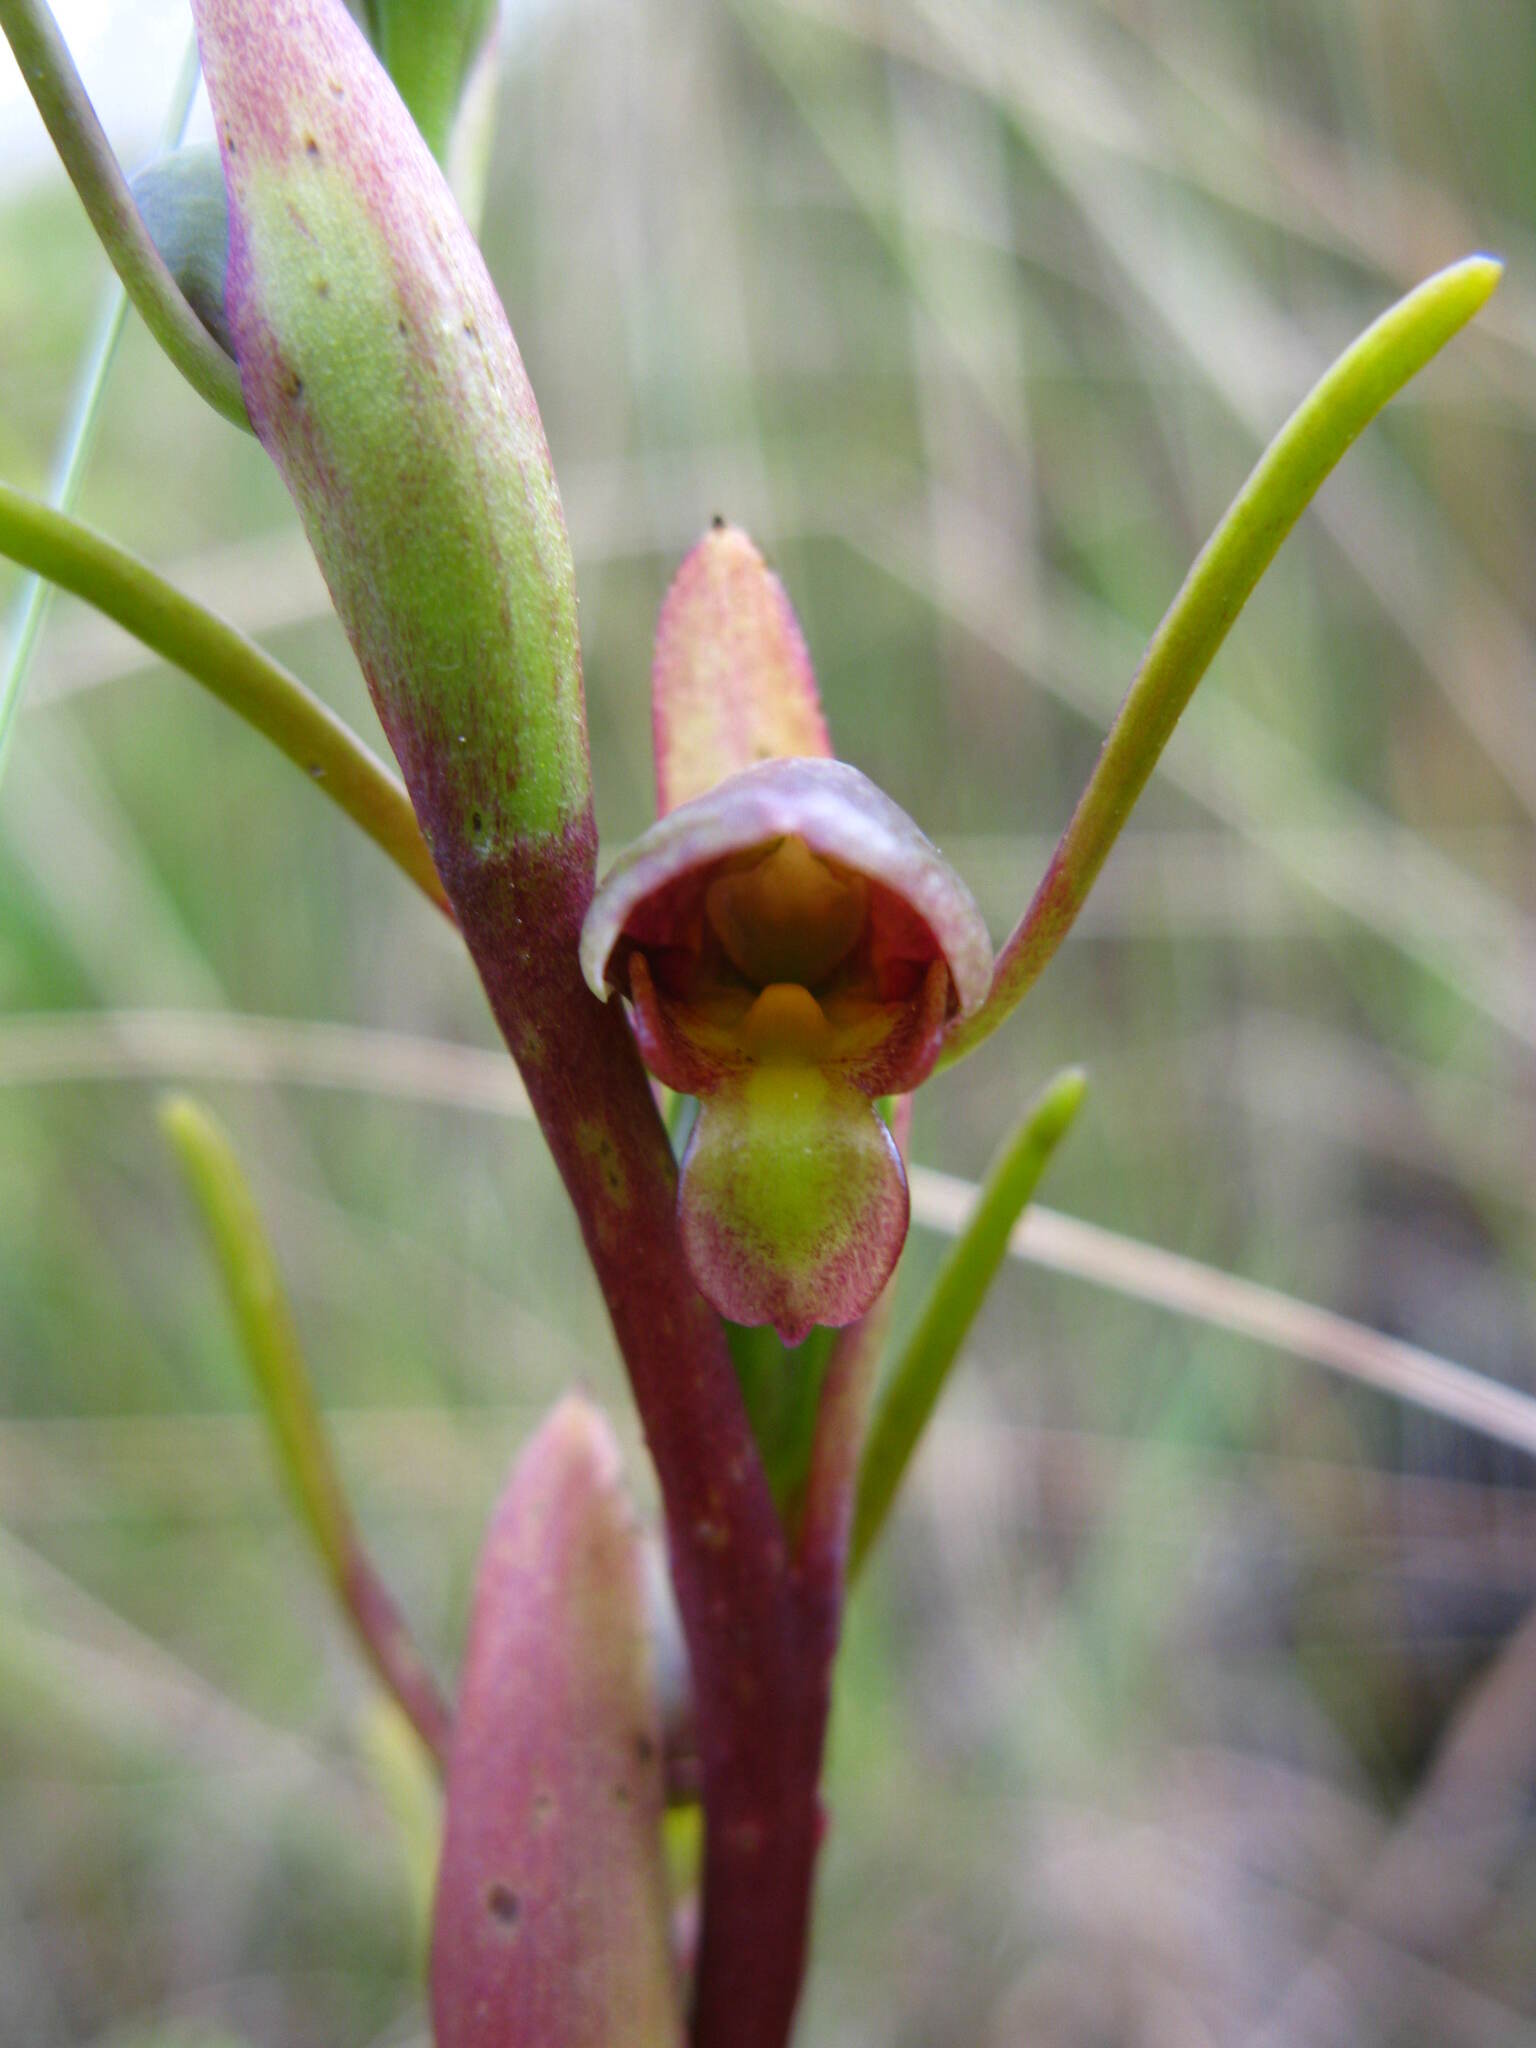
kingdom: Plantae
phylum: Tracheophyta
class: Liliopsida
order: Asparagales
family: Orchidaceae
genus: Orthoceras
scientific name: Orthoceras novae-zeelandiae
